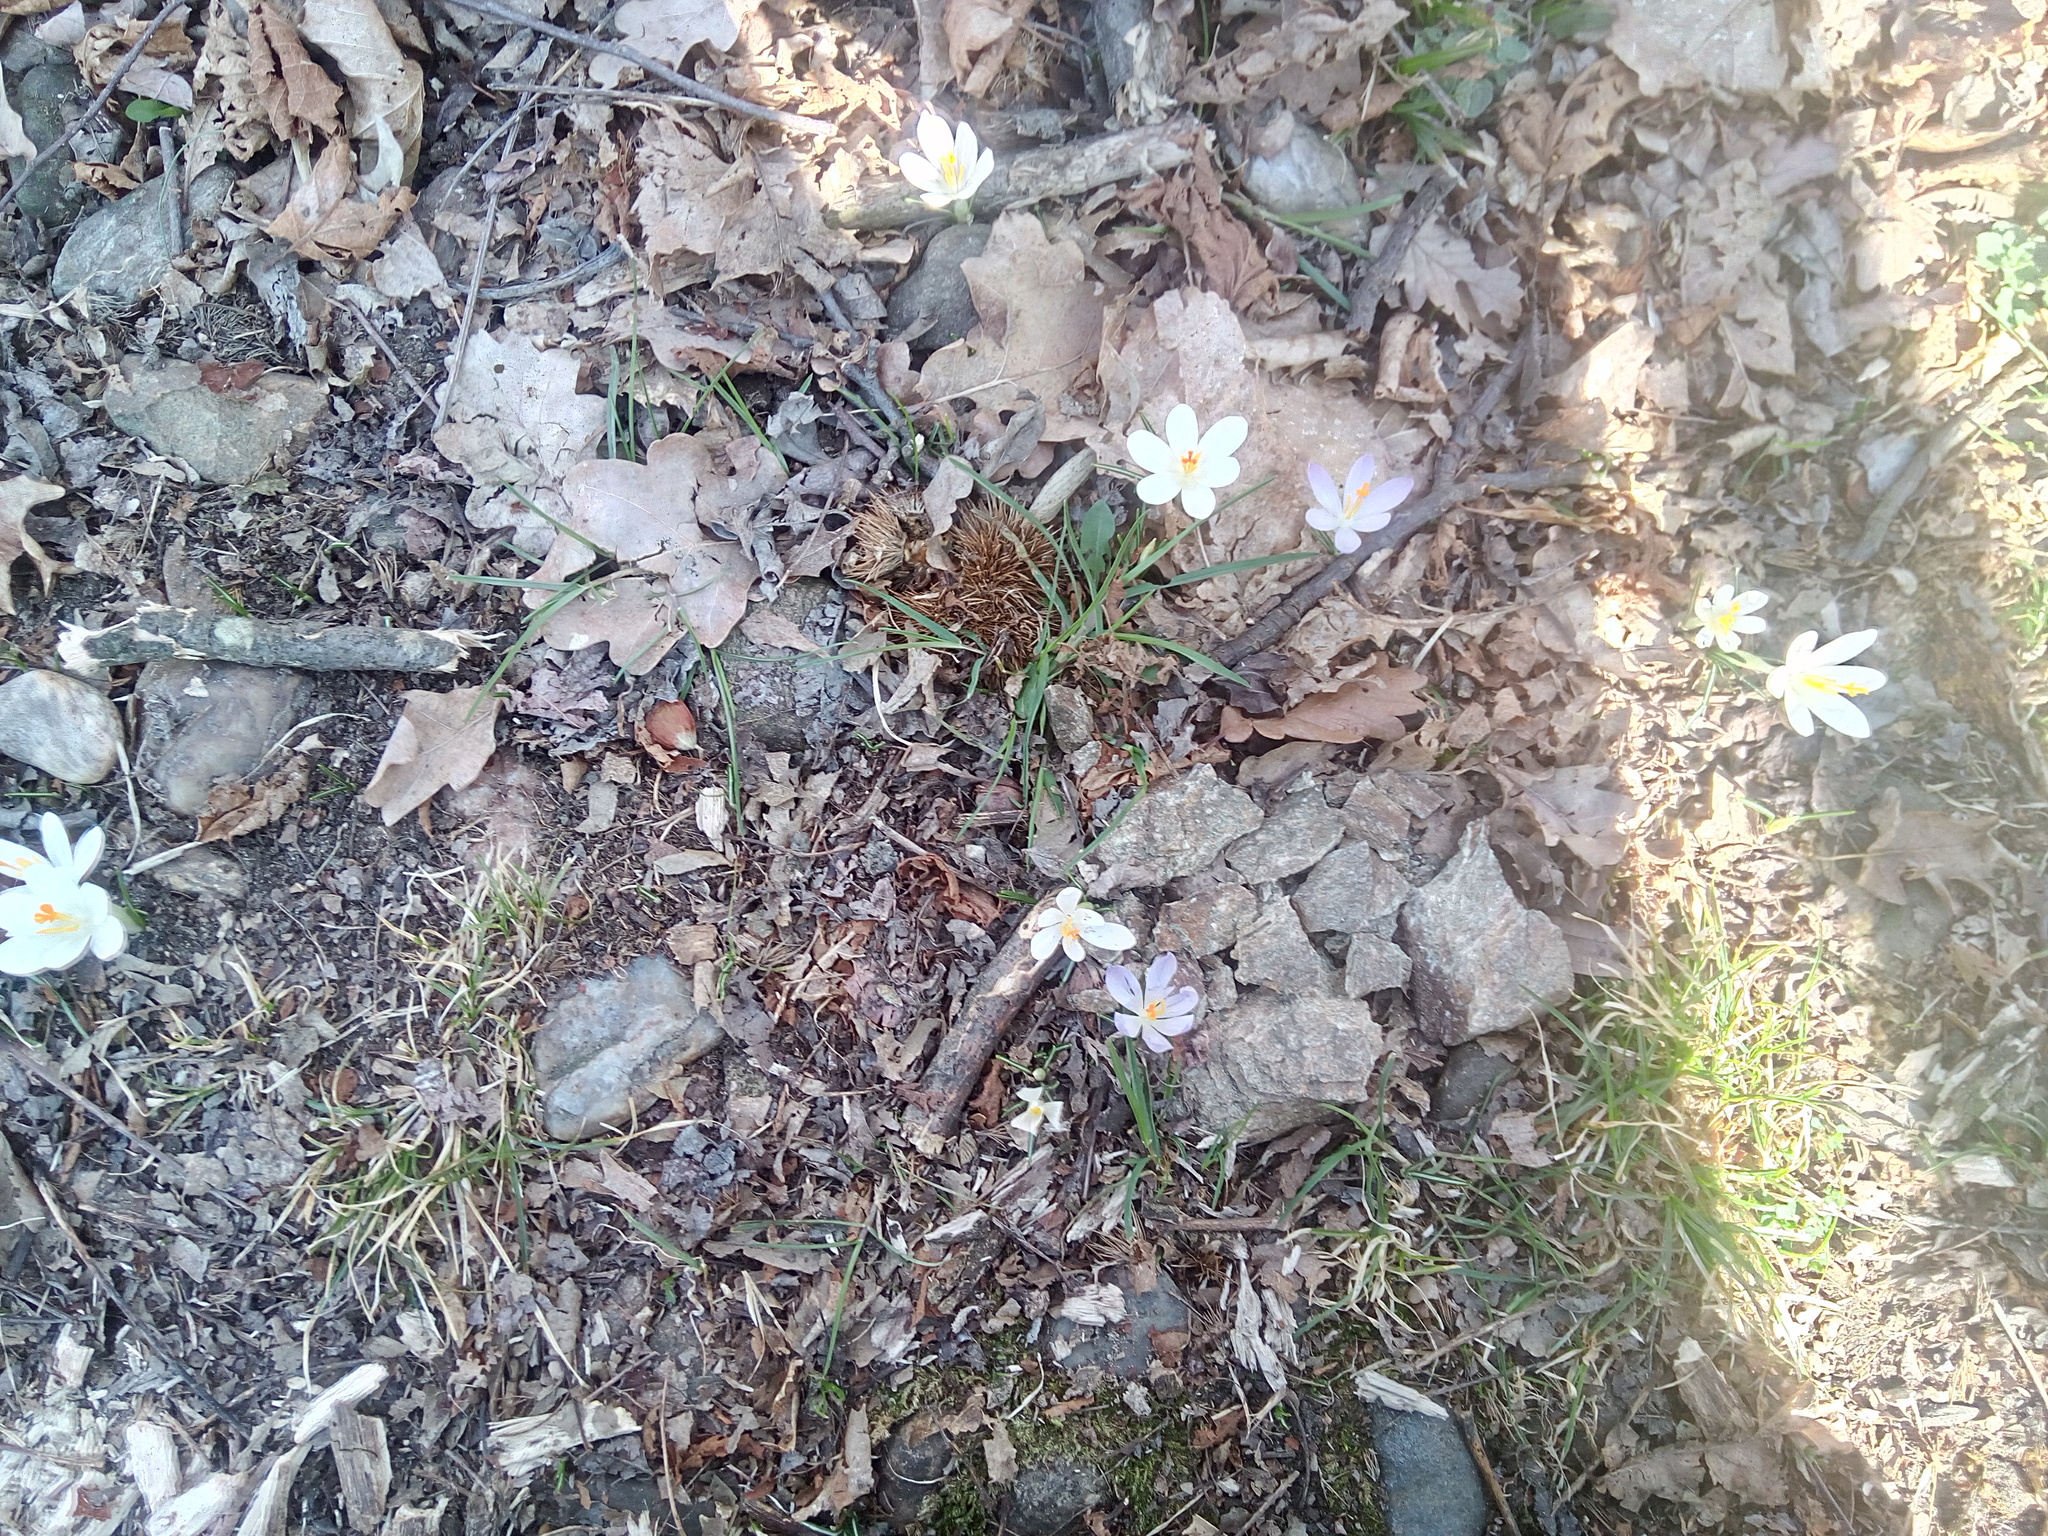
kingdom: Plantae
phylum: Tracheophyta
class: Liliopsida
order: Asparagales
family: Iridaceae
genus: Crocus
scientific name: Crocus vernus
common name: Spring crocus
